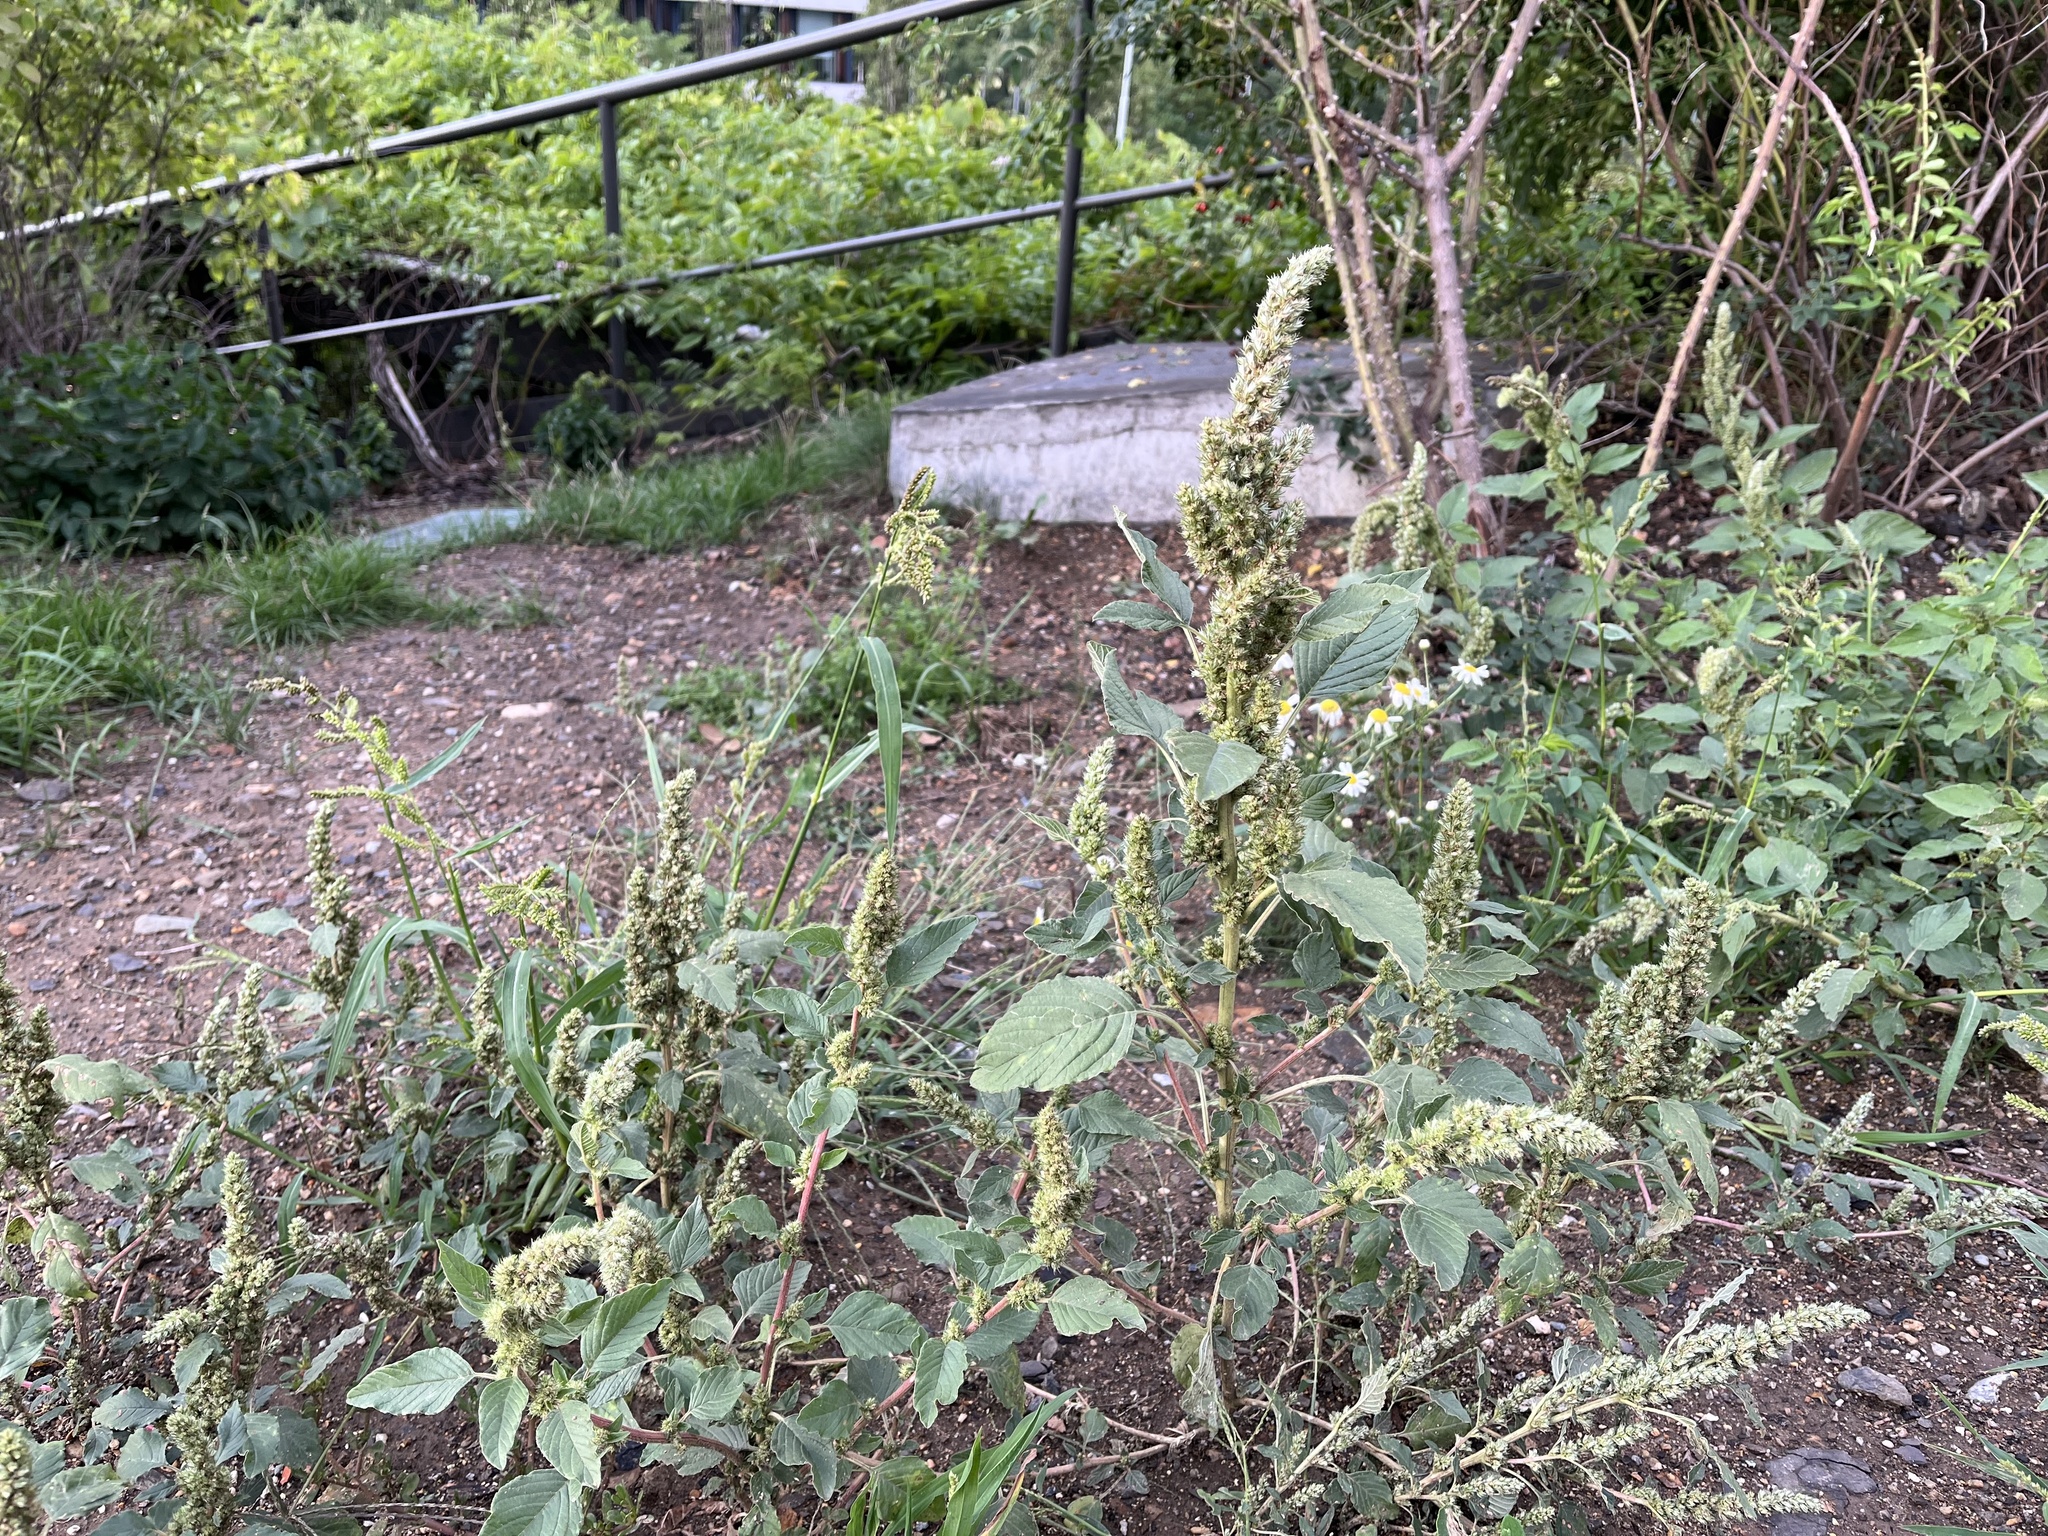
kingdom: Plantae
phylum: Tracheophyta
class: Magnoliopsida
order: Caryophyllales
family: Amaranthaceae
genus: Amaranthus
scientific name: Amaranthus retroflexus
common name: Redroot amaranth
